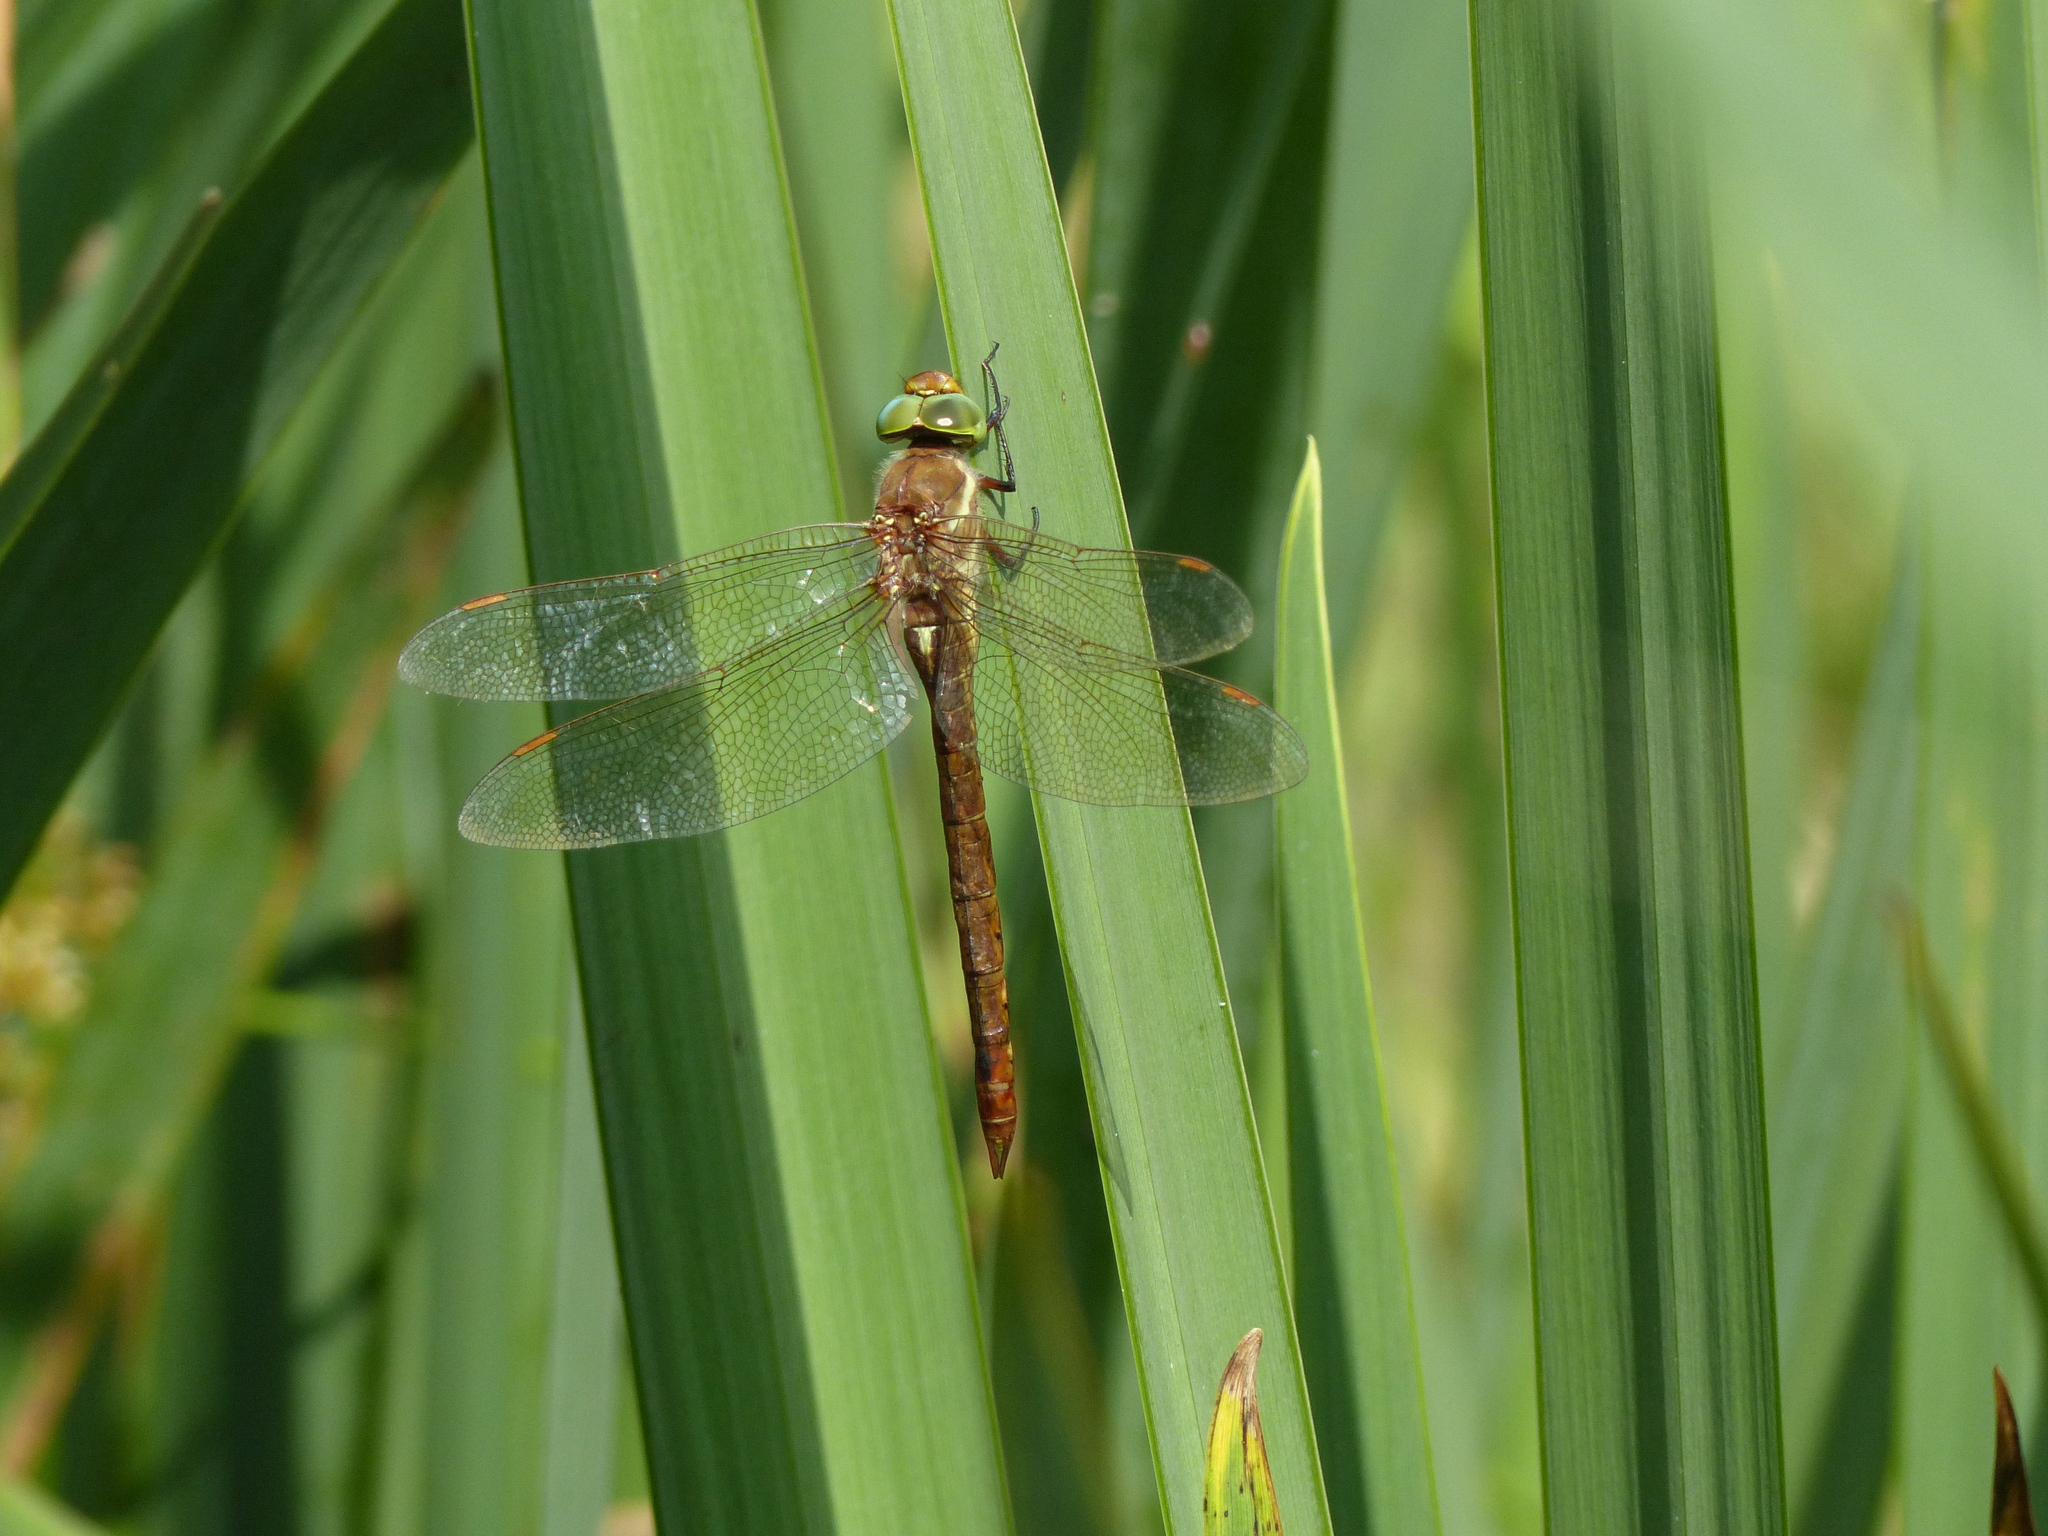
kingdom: Animalia
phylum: Arthropoda
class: Insecta
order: Odonata
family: Aeshnidae
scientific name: Aeshnidae
